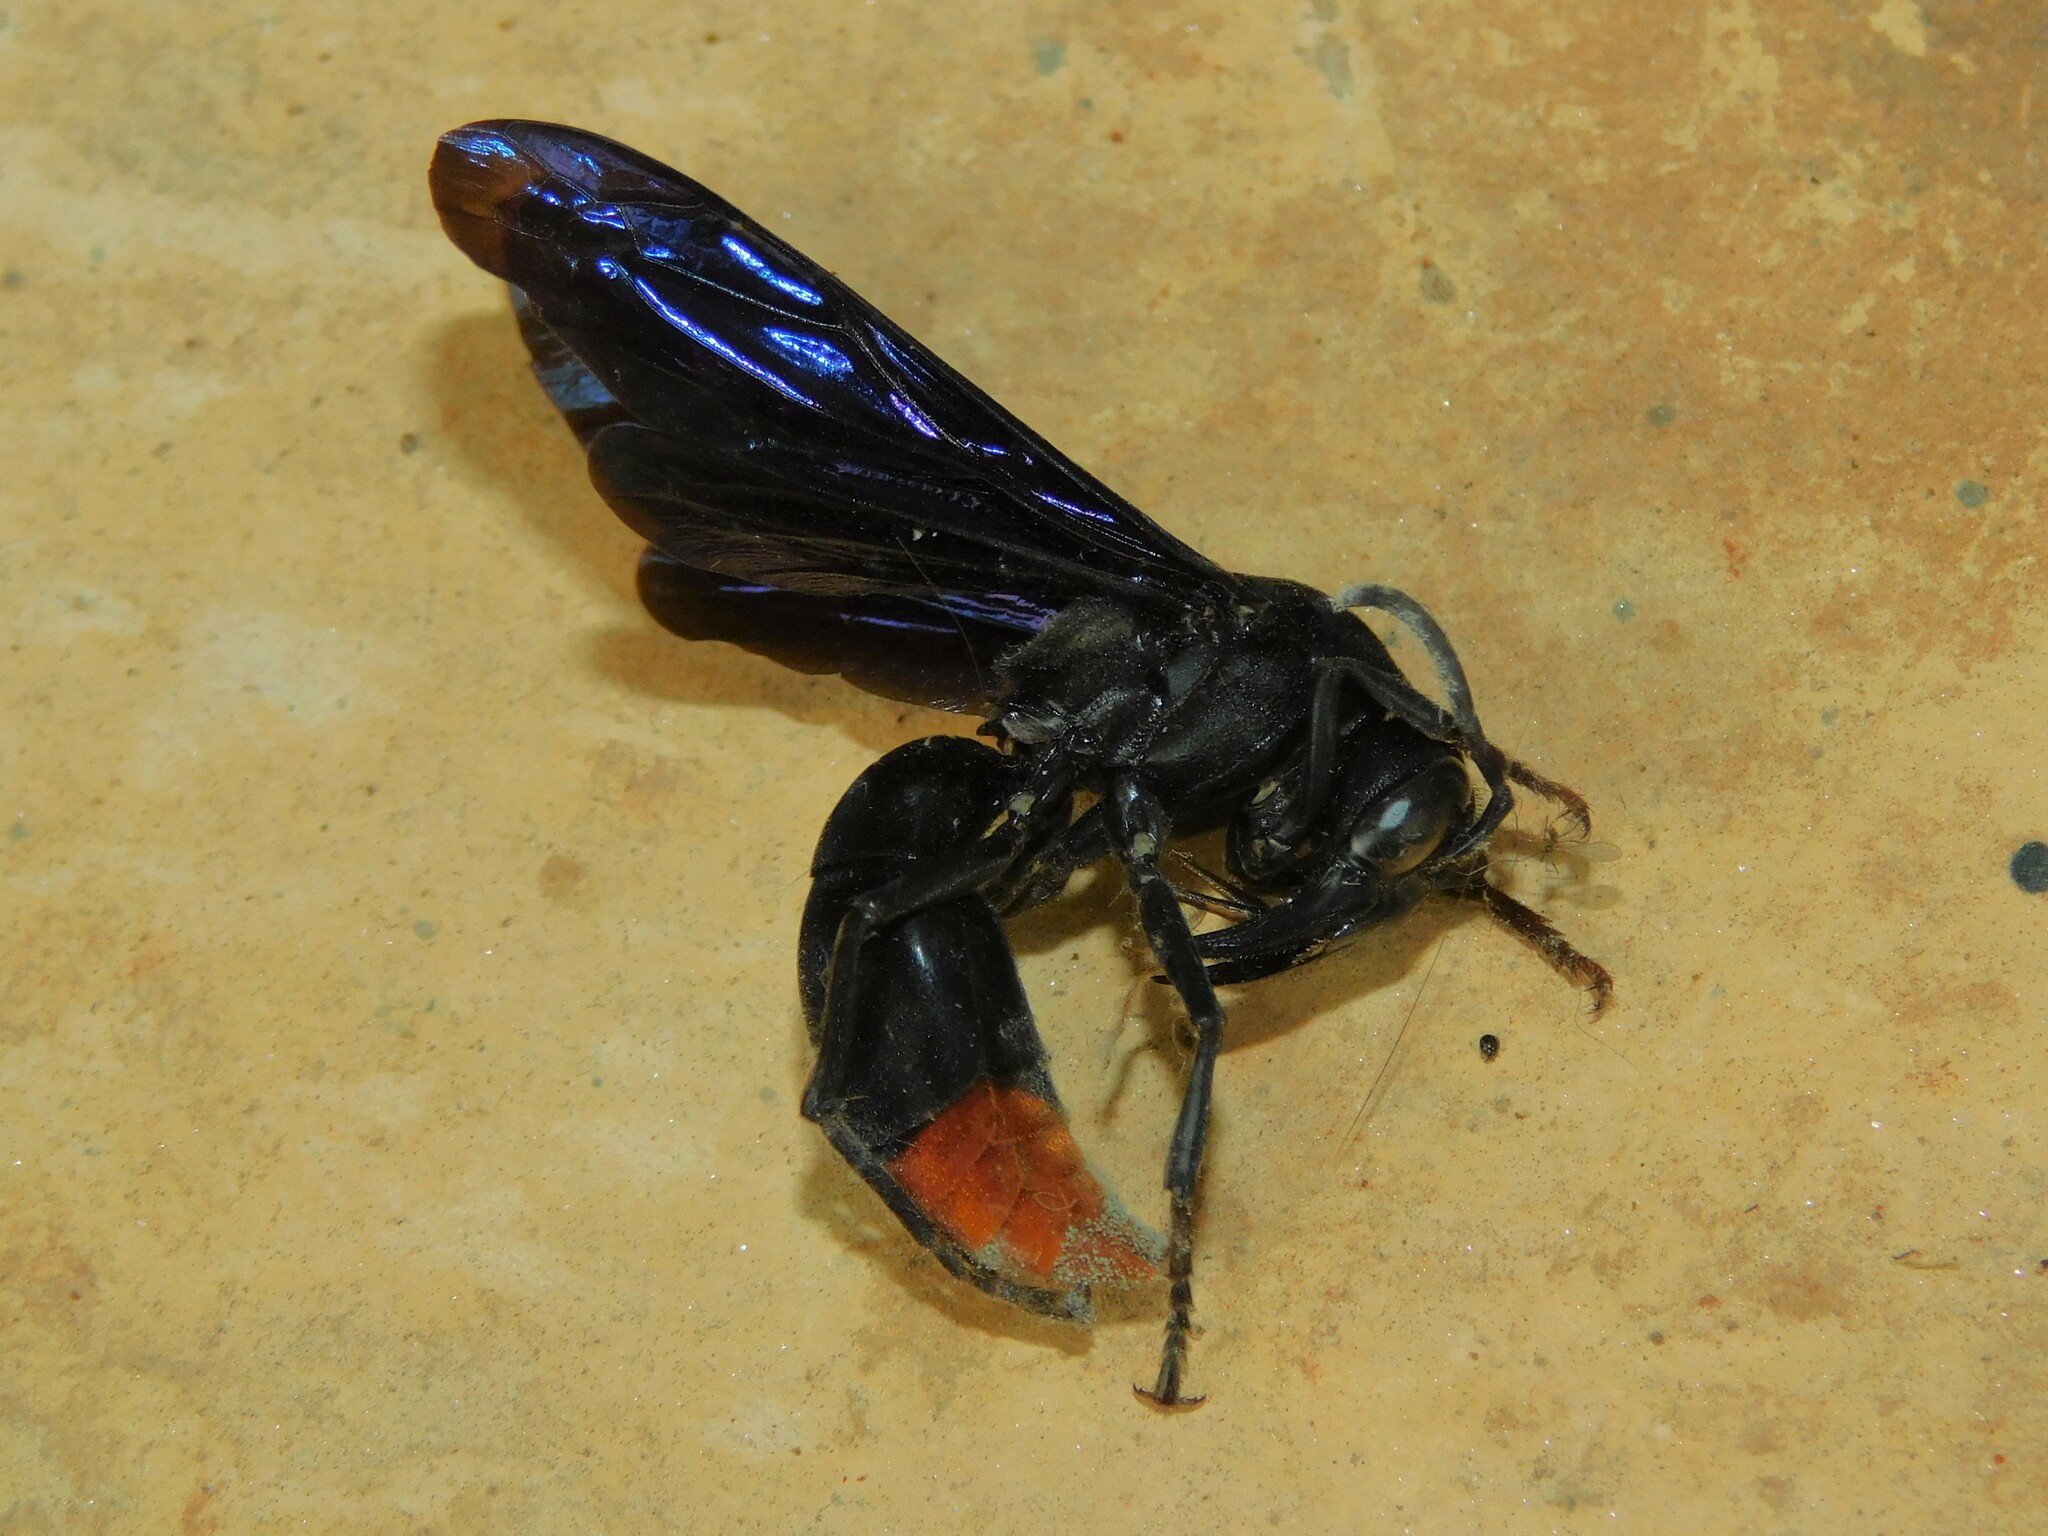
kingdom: Animalia
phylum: Arthropoda
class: Insecta
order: Hymenoptera
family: Vespidae
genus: Synagris
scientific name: Synagris kohli
